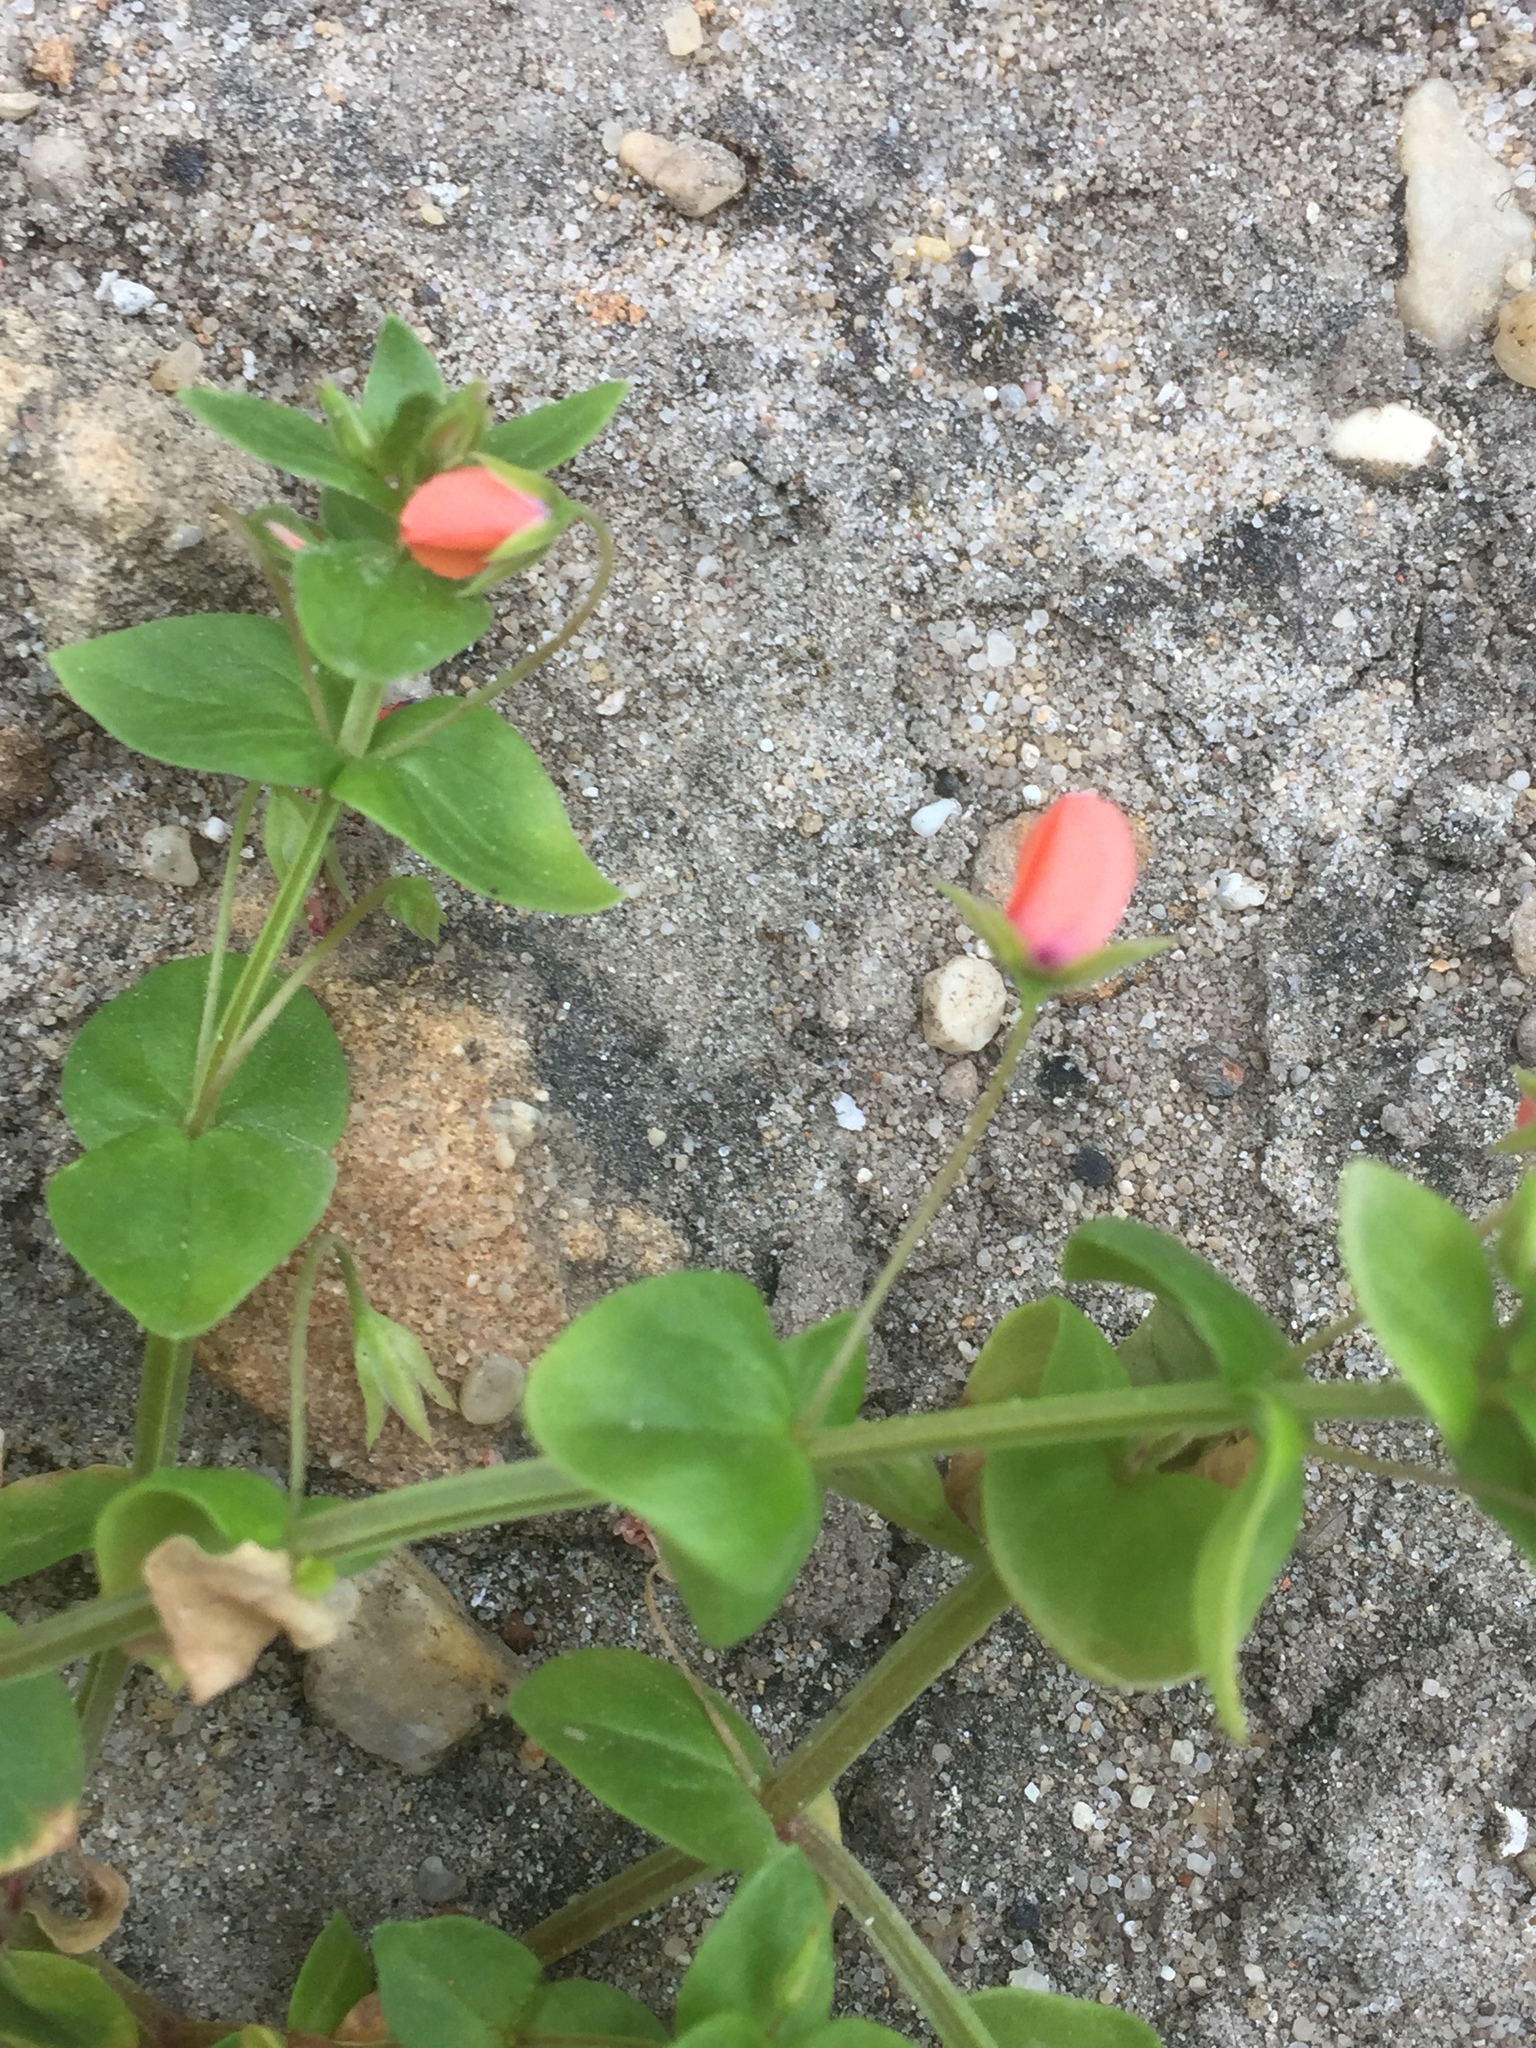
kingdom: Plantae
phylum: Tracheophyta
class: Magnoliopsida
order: Ericales
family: Primulaceae
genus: Lysimachia
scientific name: Lysimachia arvensis
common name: Scarlet pimpernel
